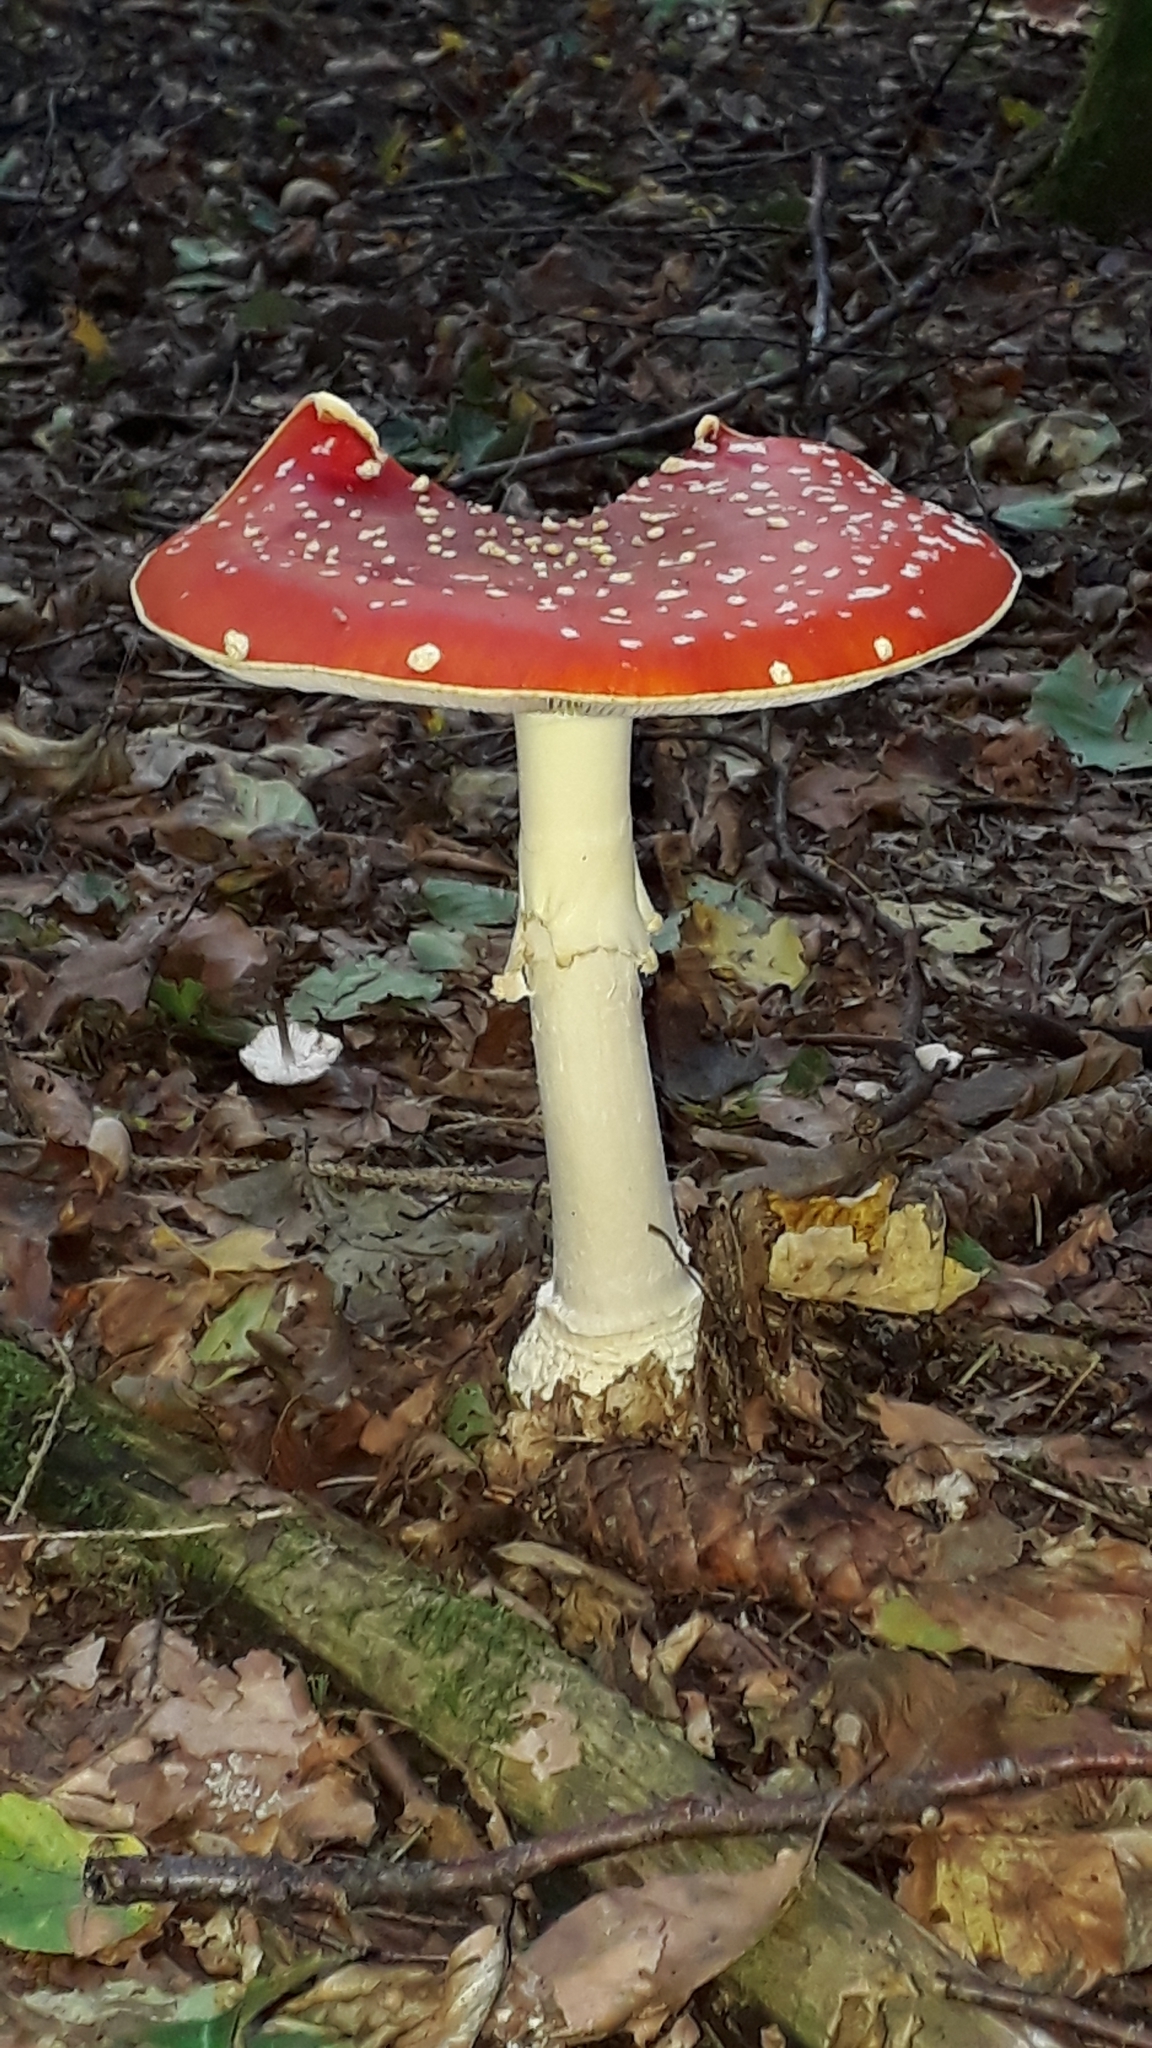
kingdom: Fungi
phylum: Basidiomycota
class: Agaricomycetes
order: Agaricales
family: Amanitaceae
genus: Amanita
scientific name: Amanita muscaria
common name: Fly agaric
